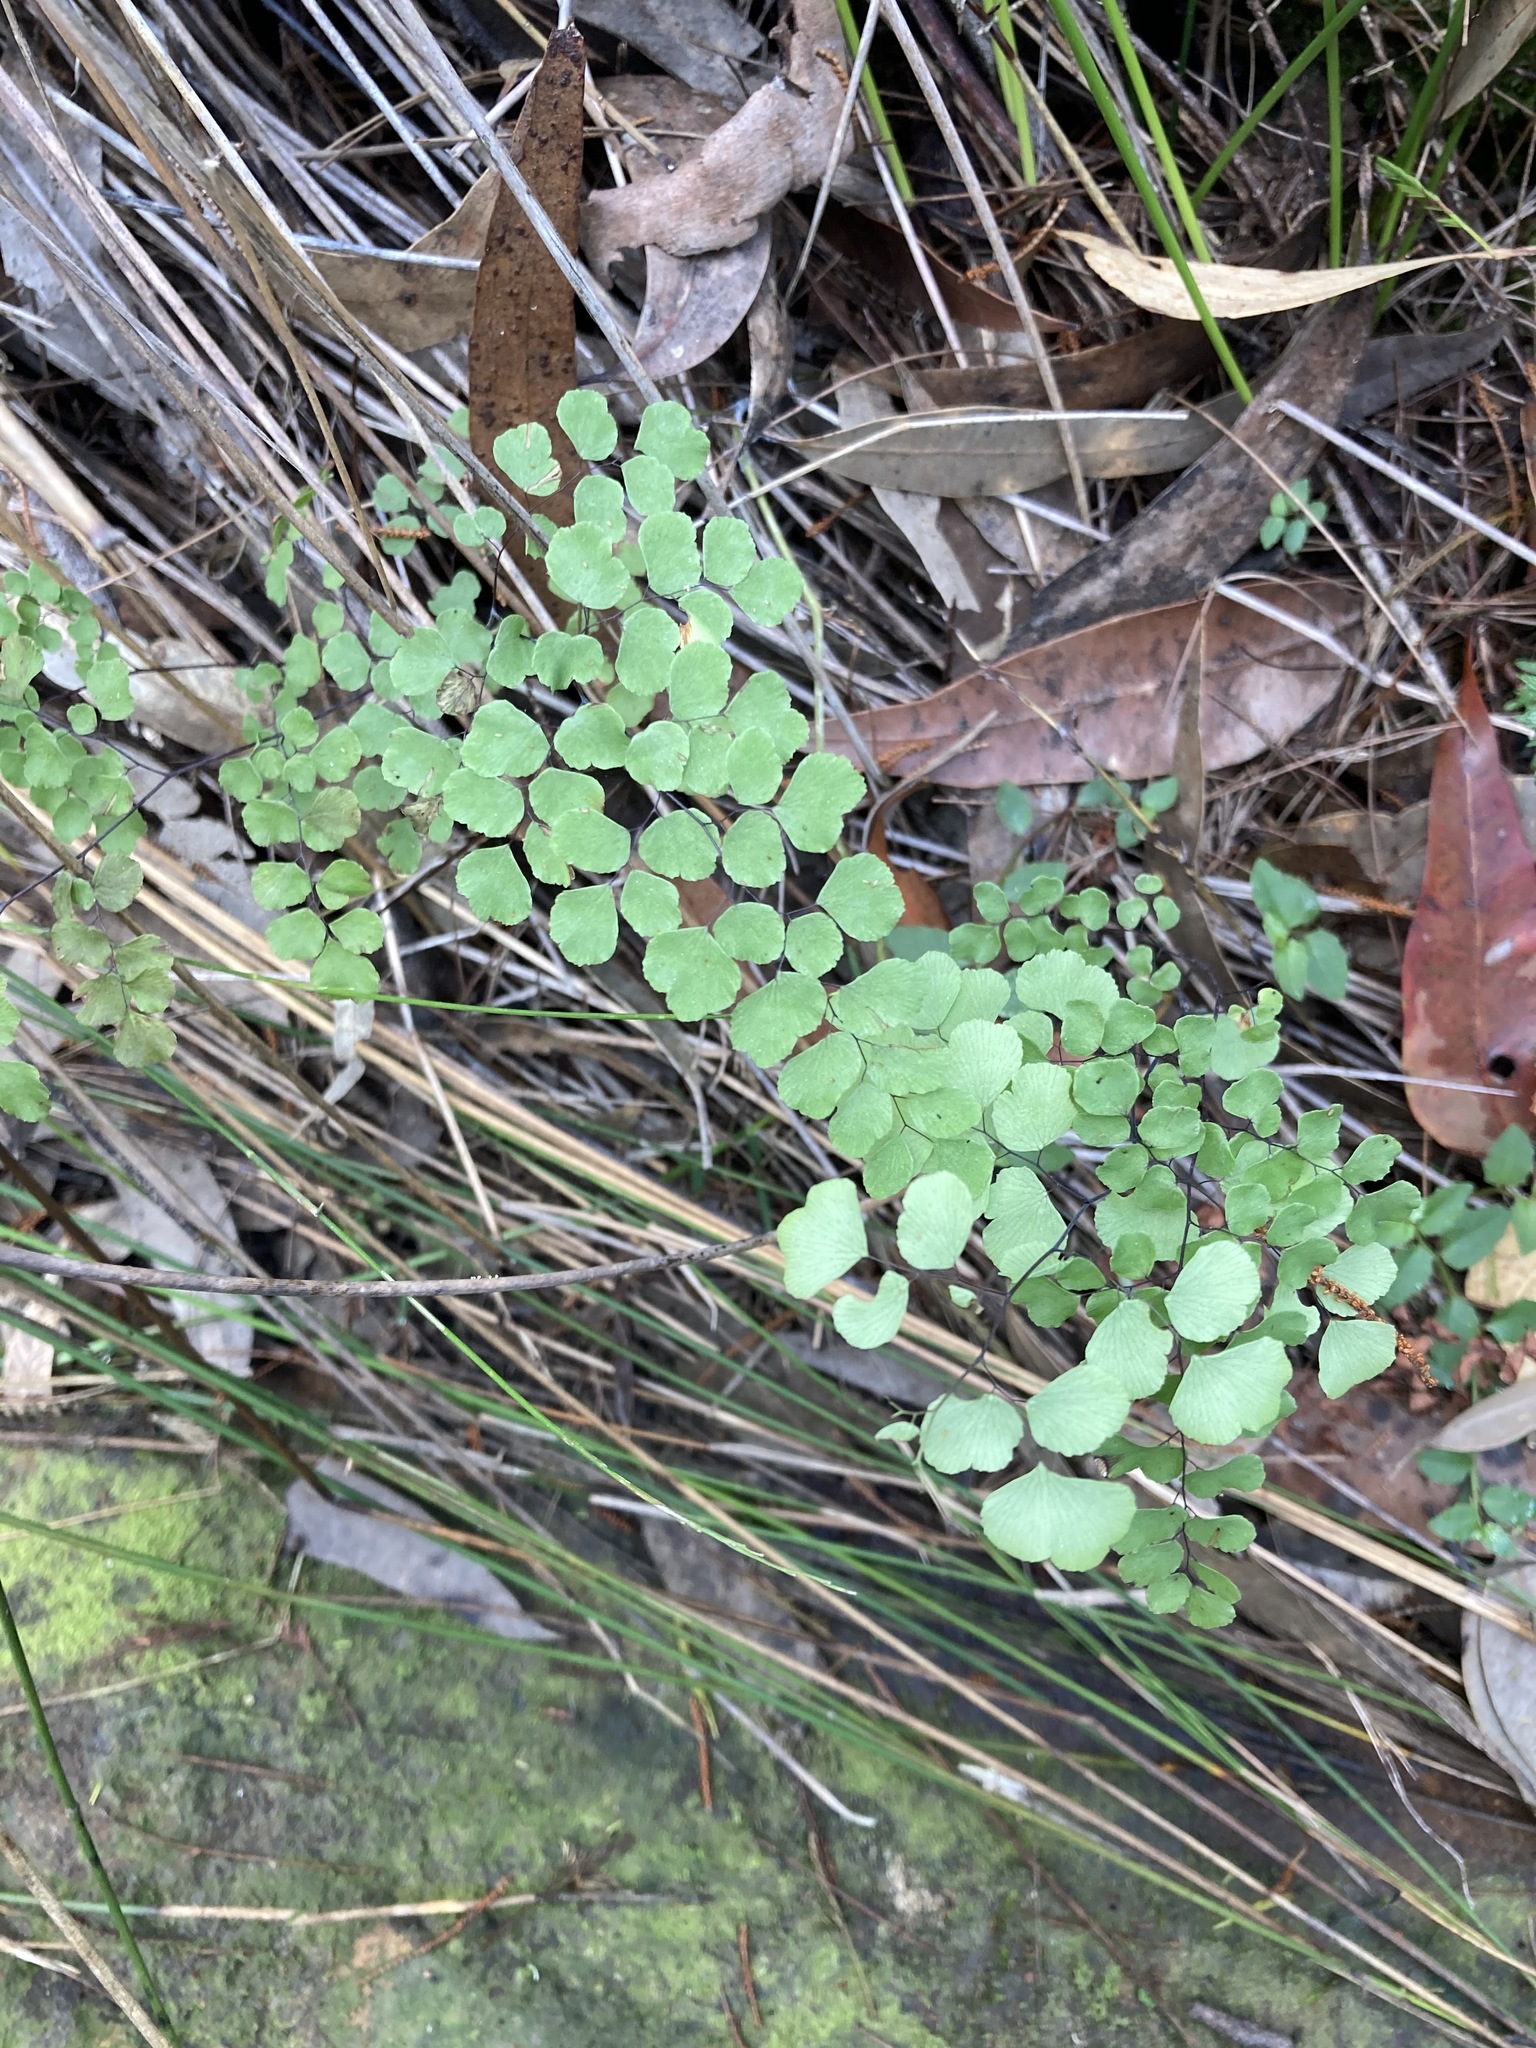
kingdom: Plantae
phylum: Tracheophyta
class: Polypodiopsida
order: Polypodiales
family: Pteridaceae
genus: Adiantum
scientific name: Adiantum aethiopicum
